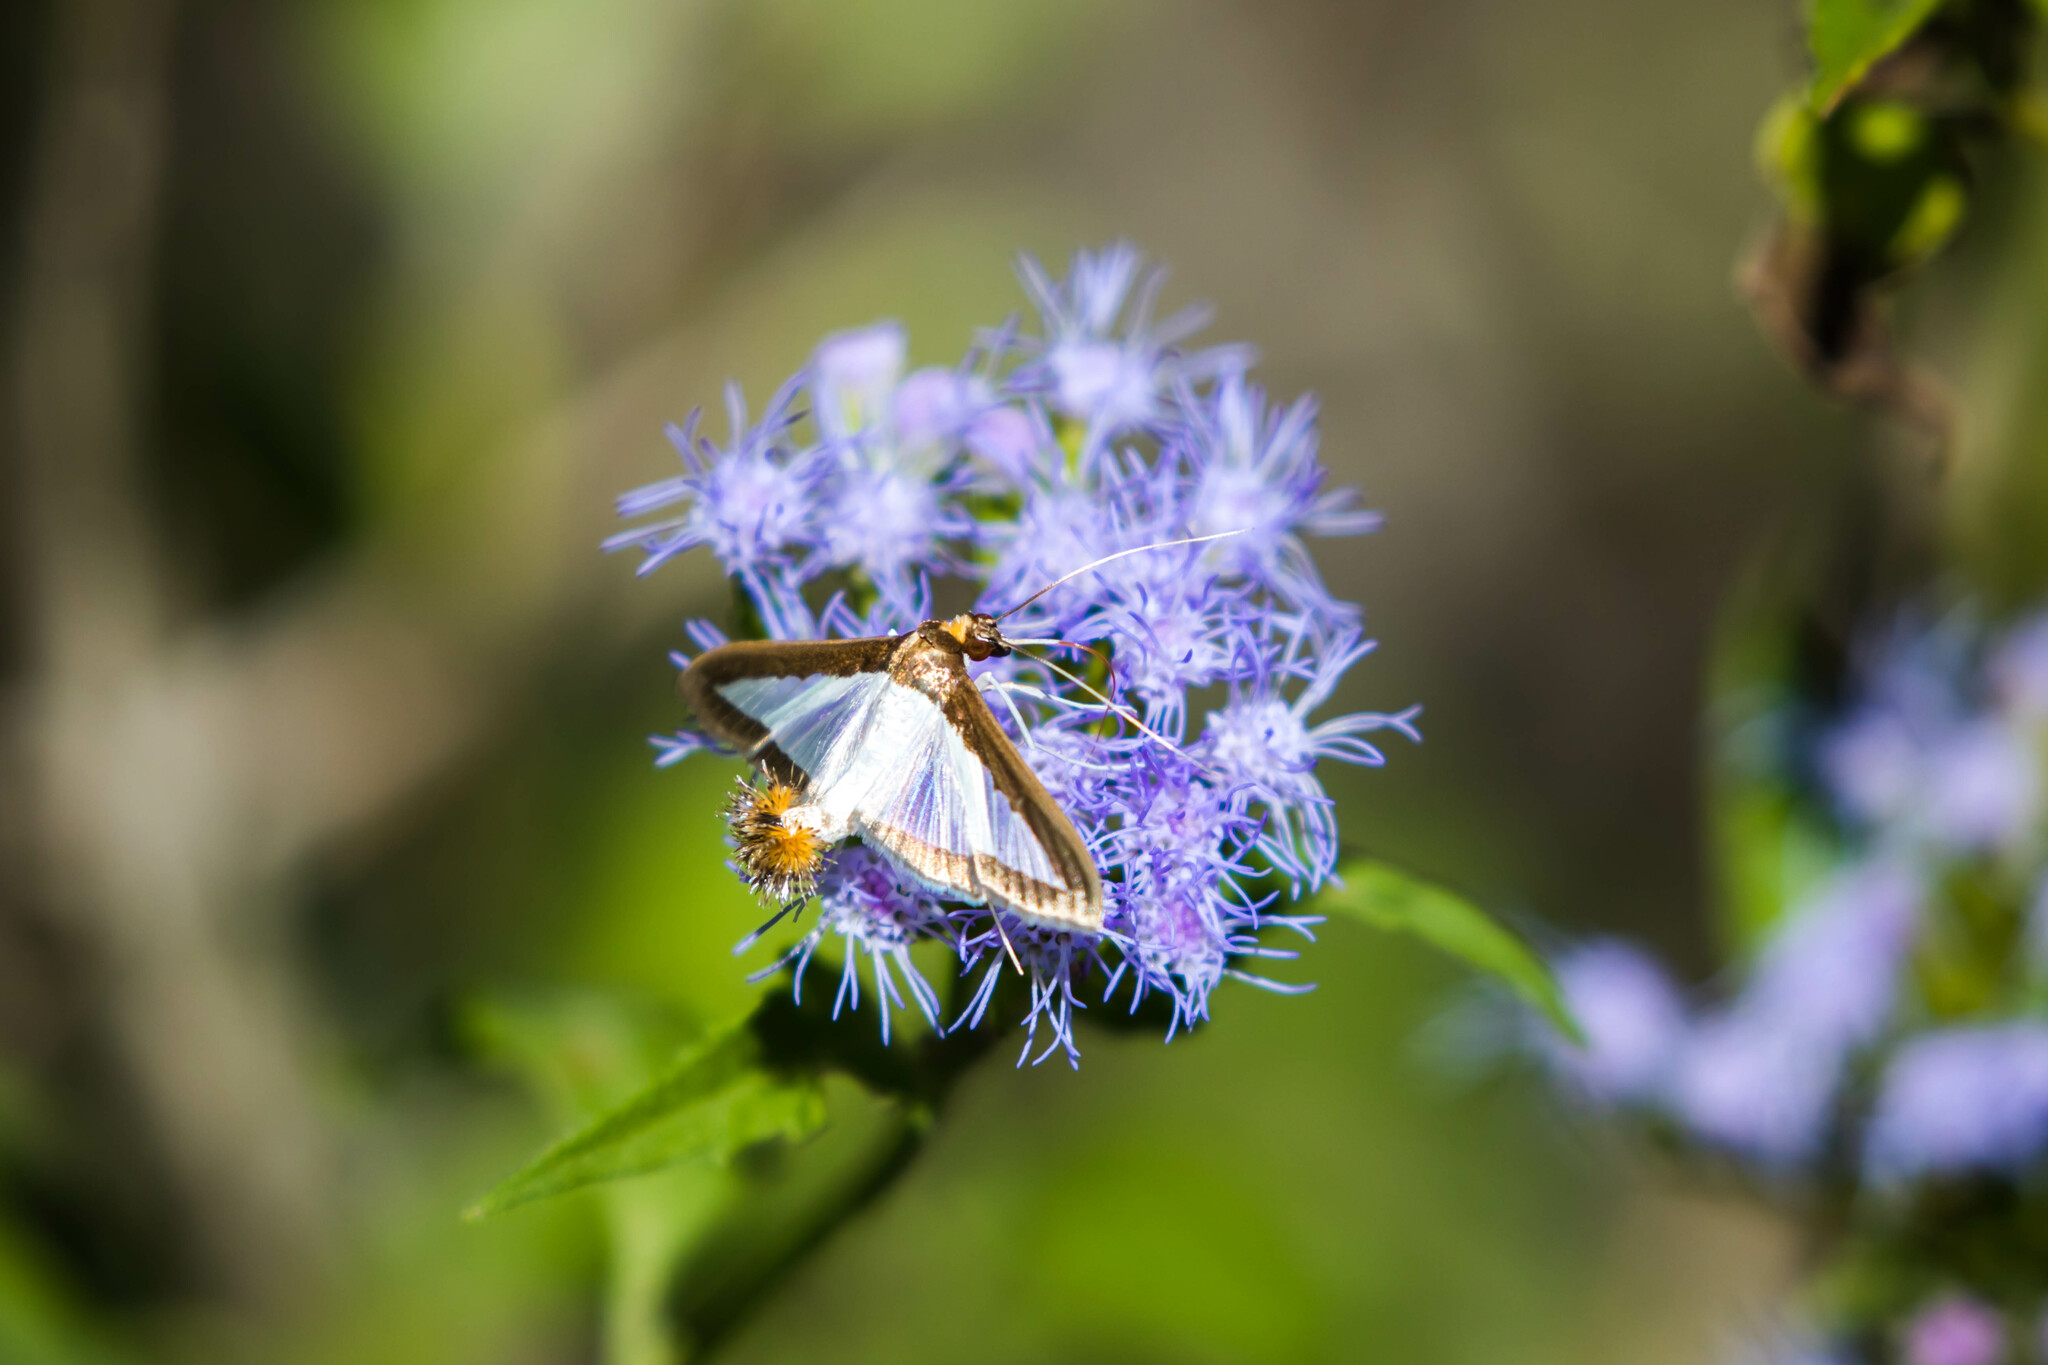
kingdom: Animalia
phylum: Arthropoda
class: Insecta
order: Lepidoptera
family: Crambidae
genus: Diaphania
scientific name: Diaphania hyalinata
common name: Melonworm
